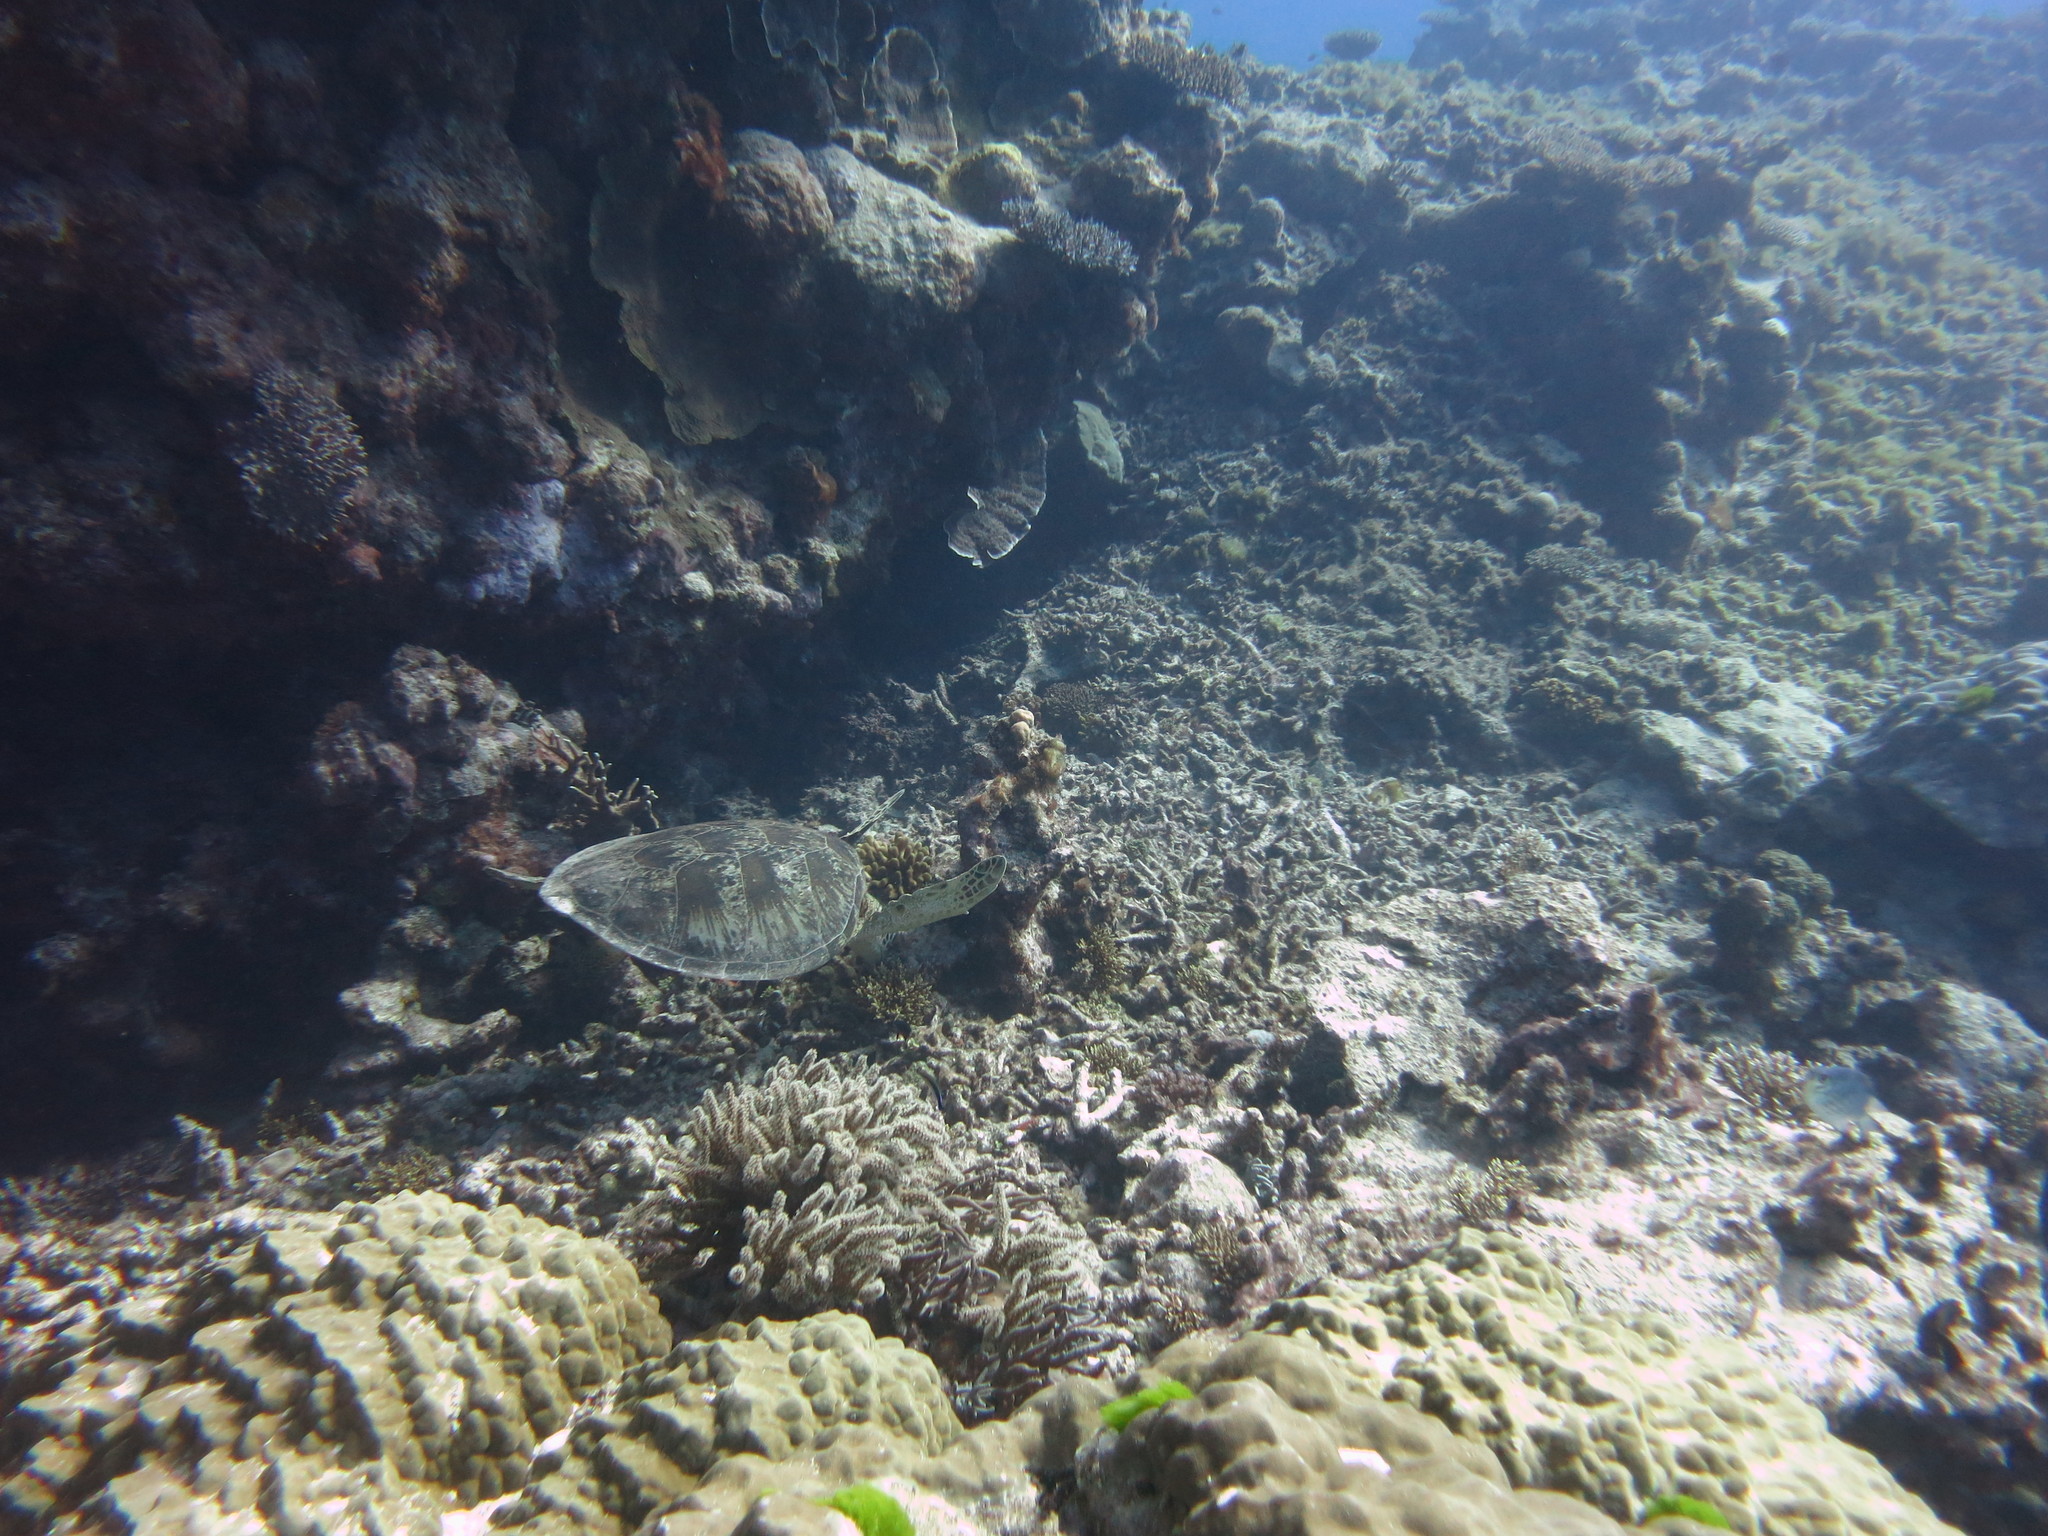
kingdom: Animalia
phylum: Chordata
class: Testudines
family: Cheloniidae
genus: Chelonia
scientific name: Chelonia mydas
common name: Green turtle
